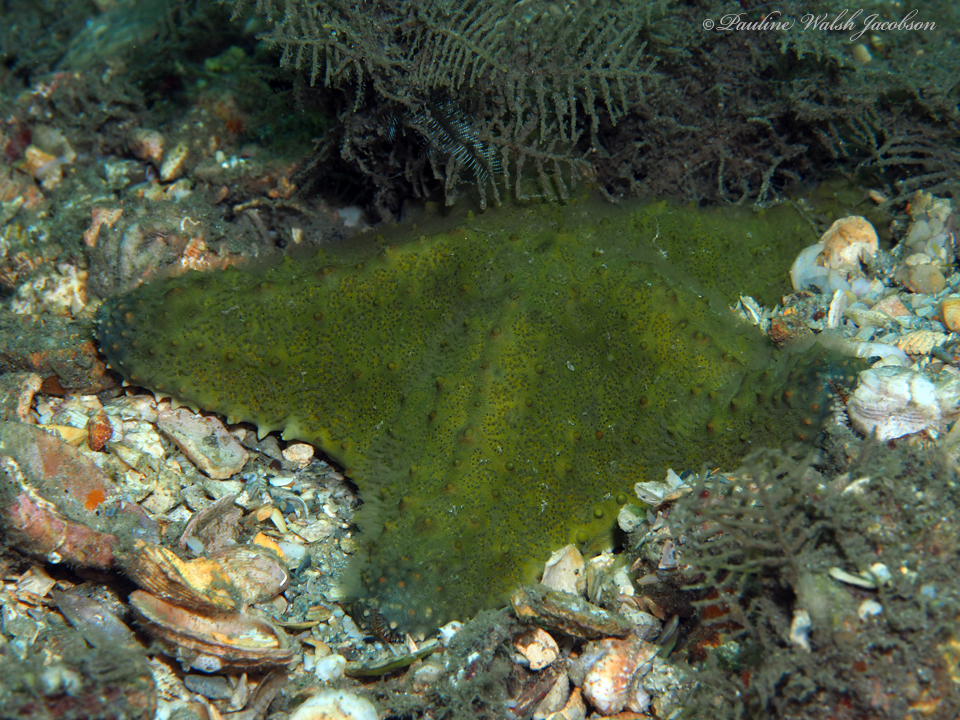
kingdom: Animalia
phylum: Echinodermata
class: Asteroidea
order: Valvatida
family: Oreasteridae
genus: Oreaster
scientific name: Oreaster reticulatus
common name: Cushion sea star
